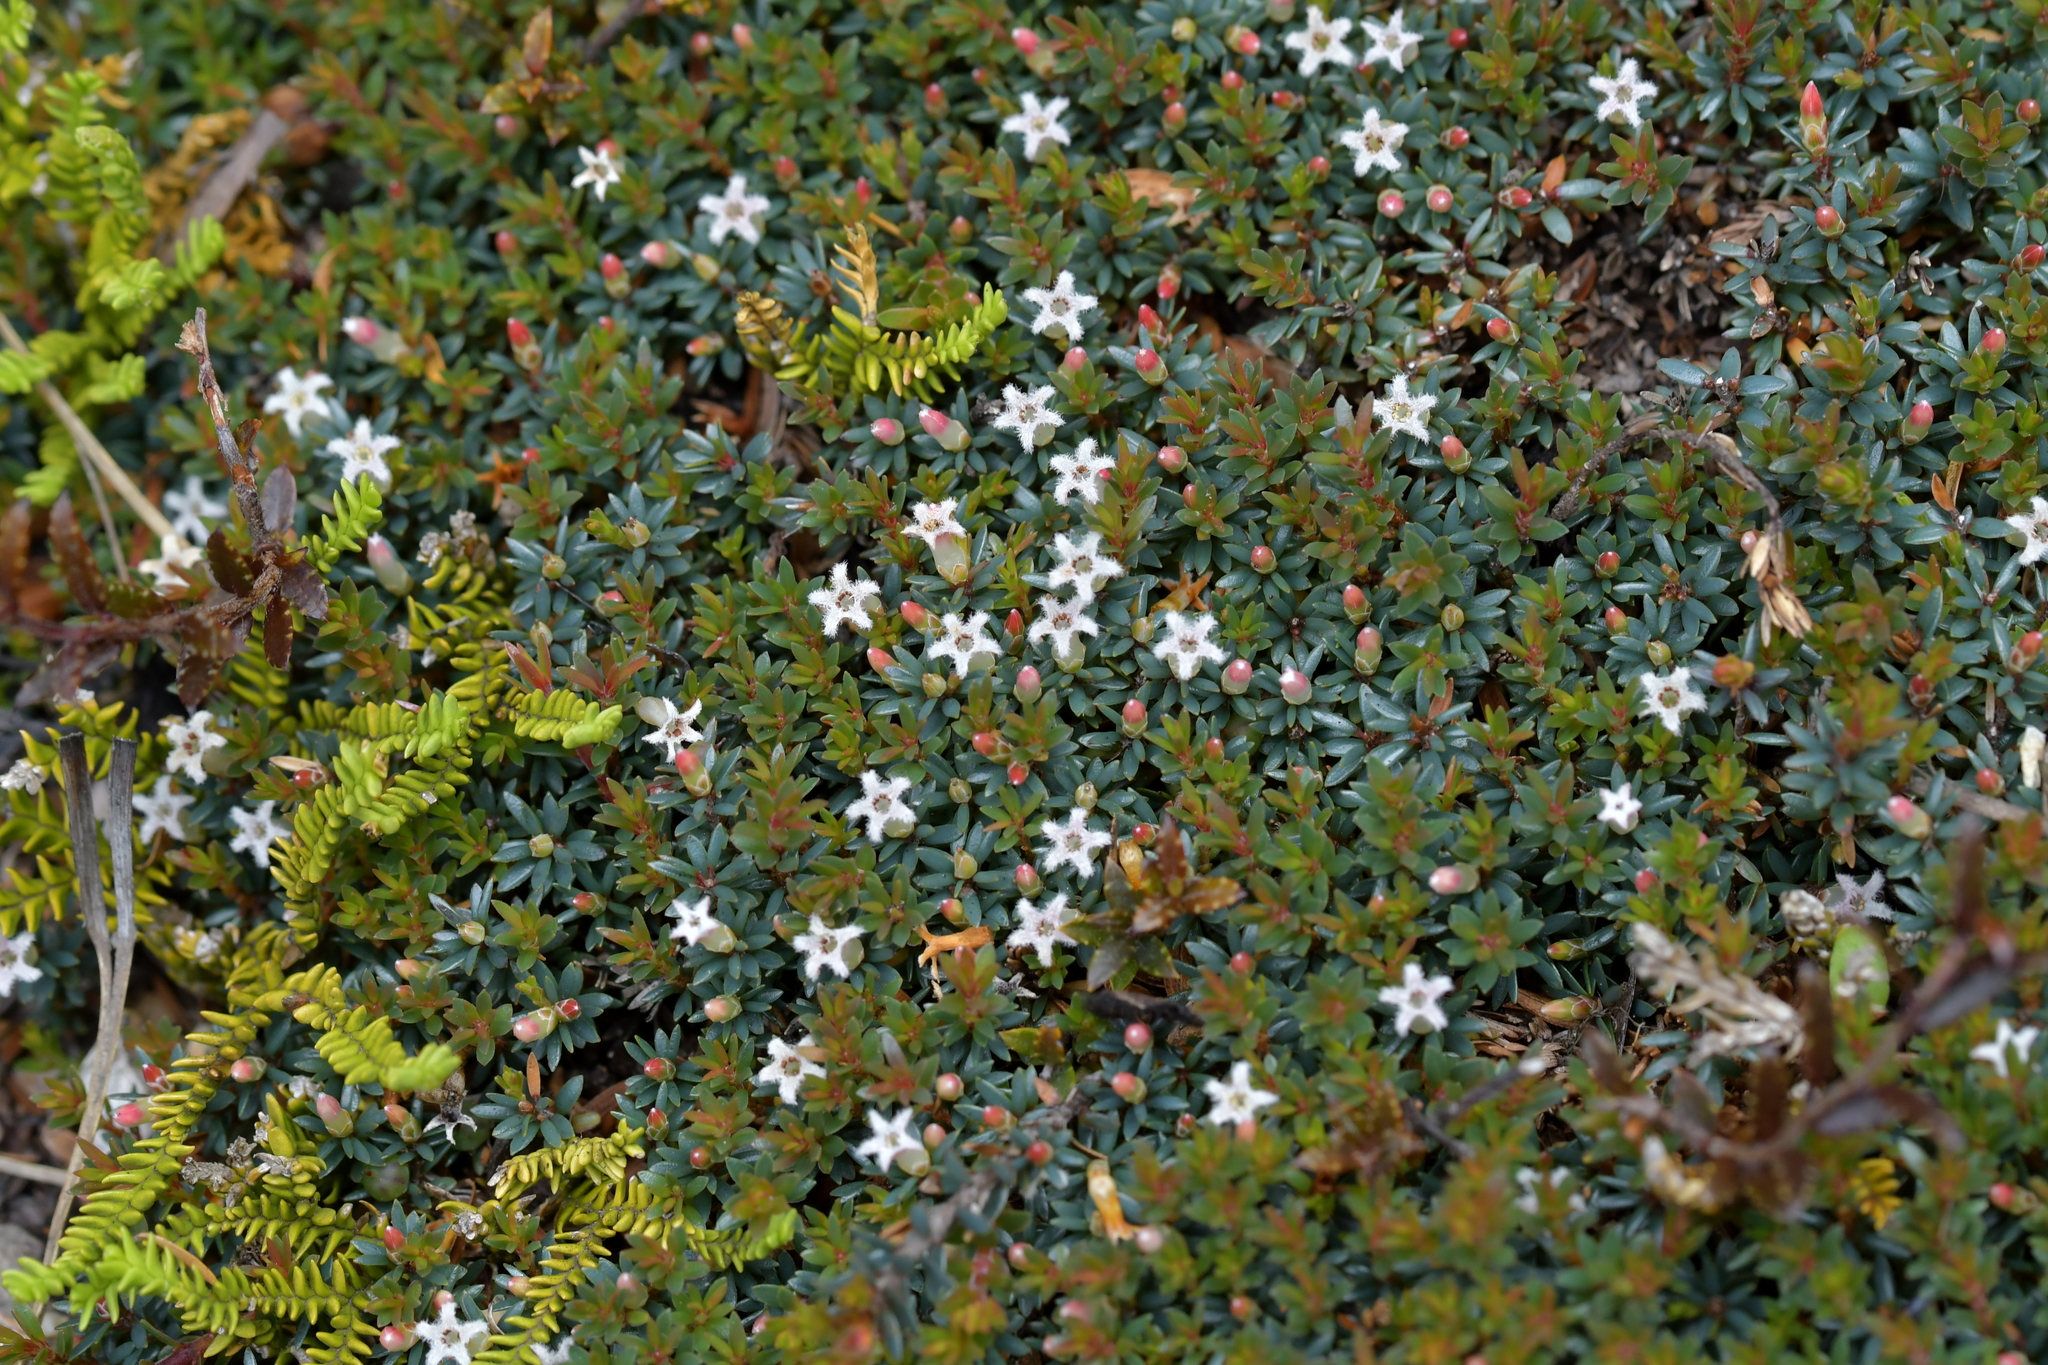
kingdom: Plantae
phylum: Tracheophyta
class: Magnoliopsida
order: Ericales
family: Ericaceae
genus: Pentachondra
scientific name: Pentachondra pumila
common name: Carpet-heath
